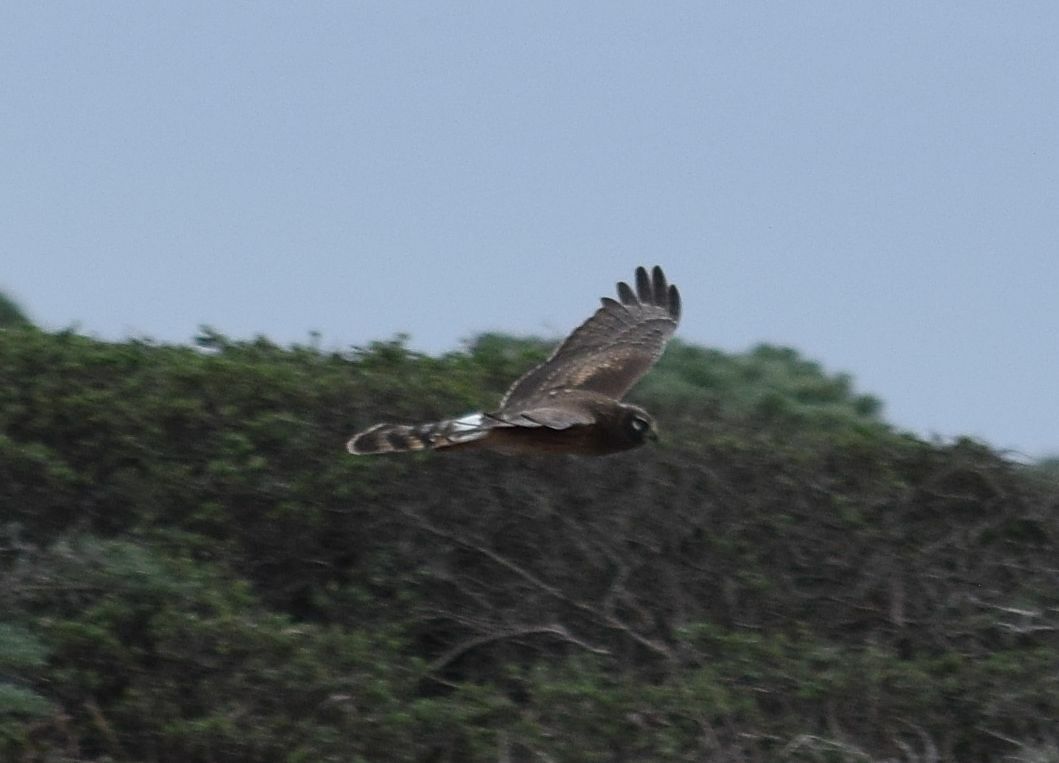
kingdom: Animalia
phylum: Chordata
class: Aves
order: Accipitriformes
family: Accipitridae
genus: Circus
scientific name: Circus cyaneus
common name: Hen harrier
